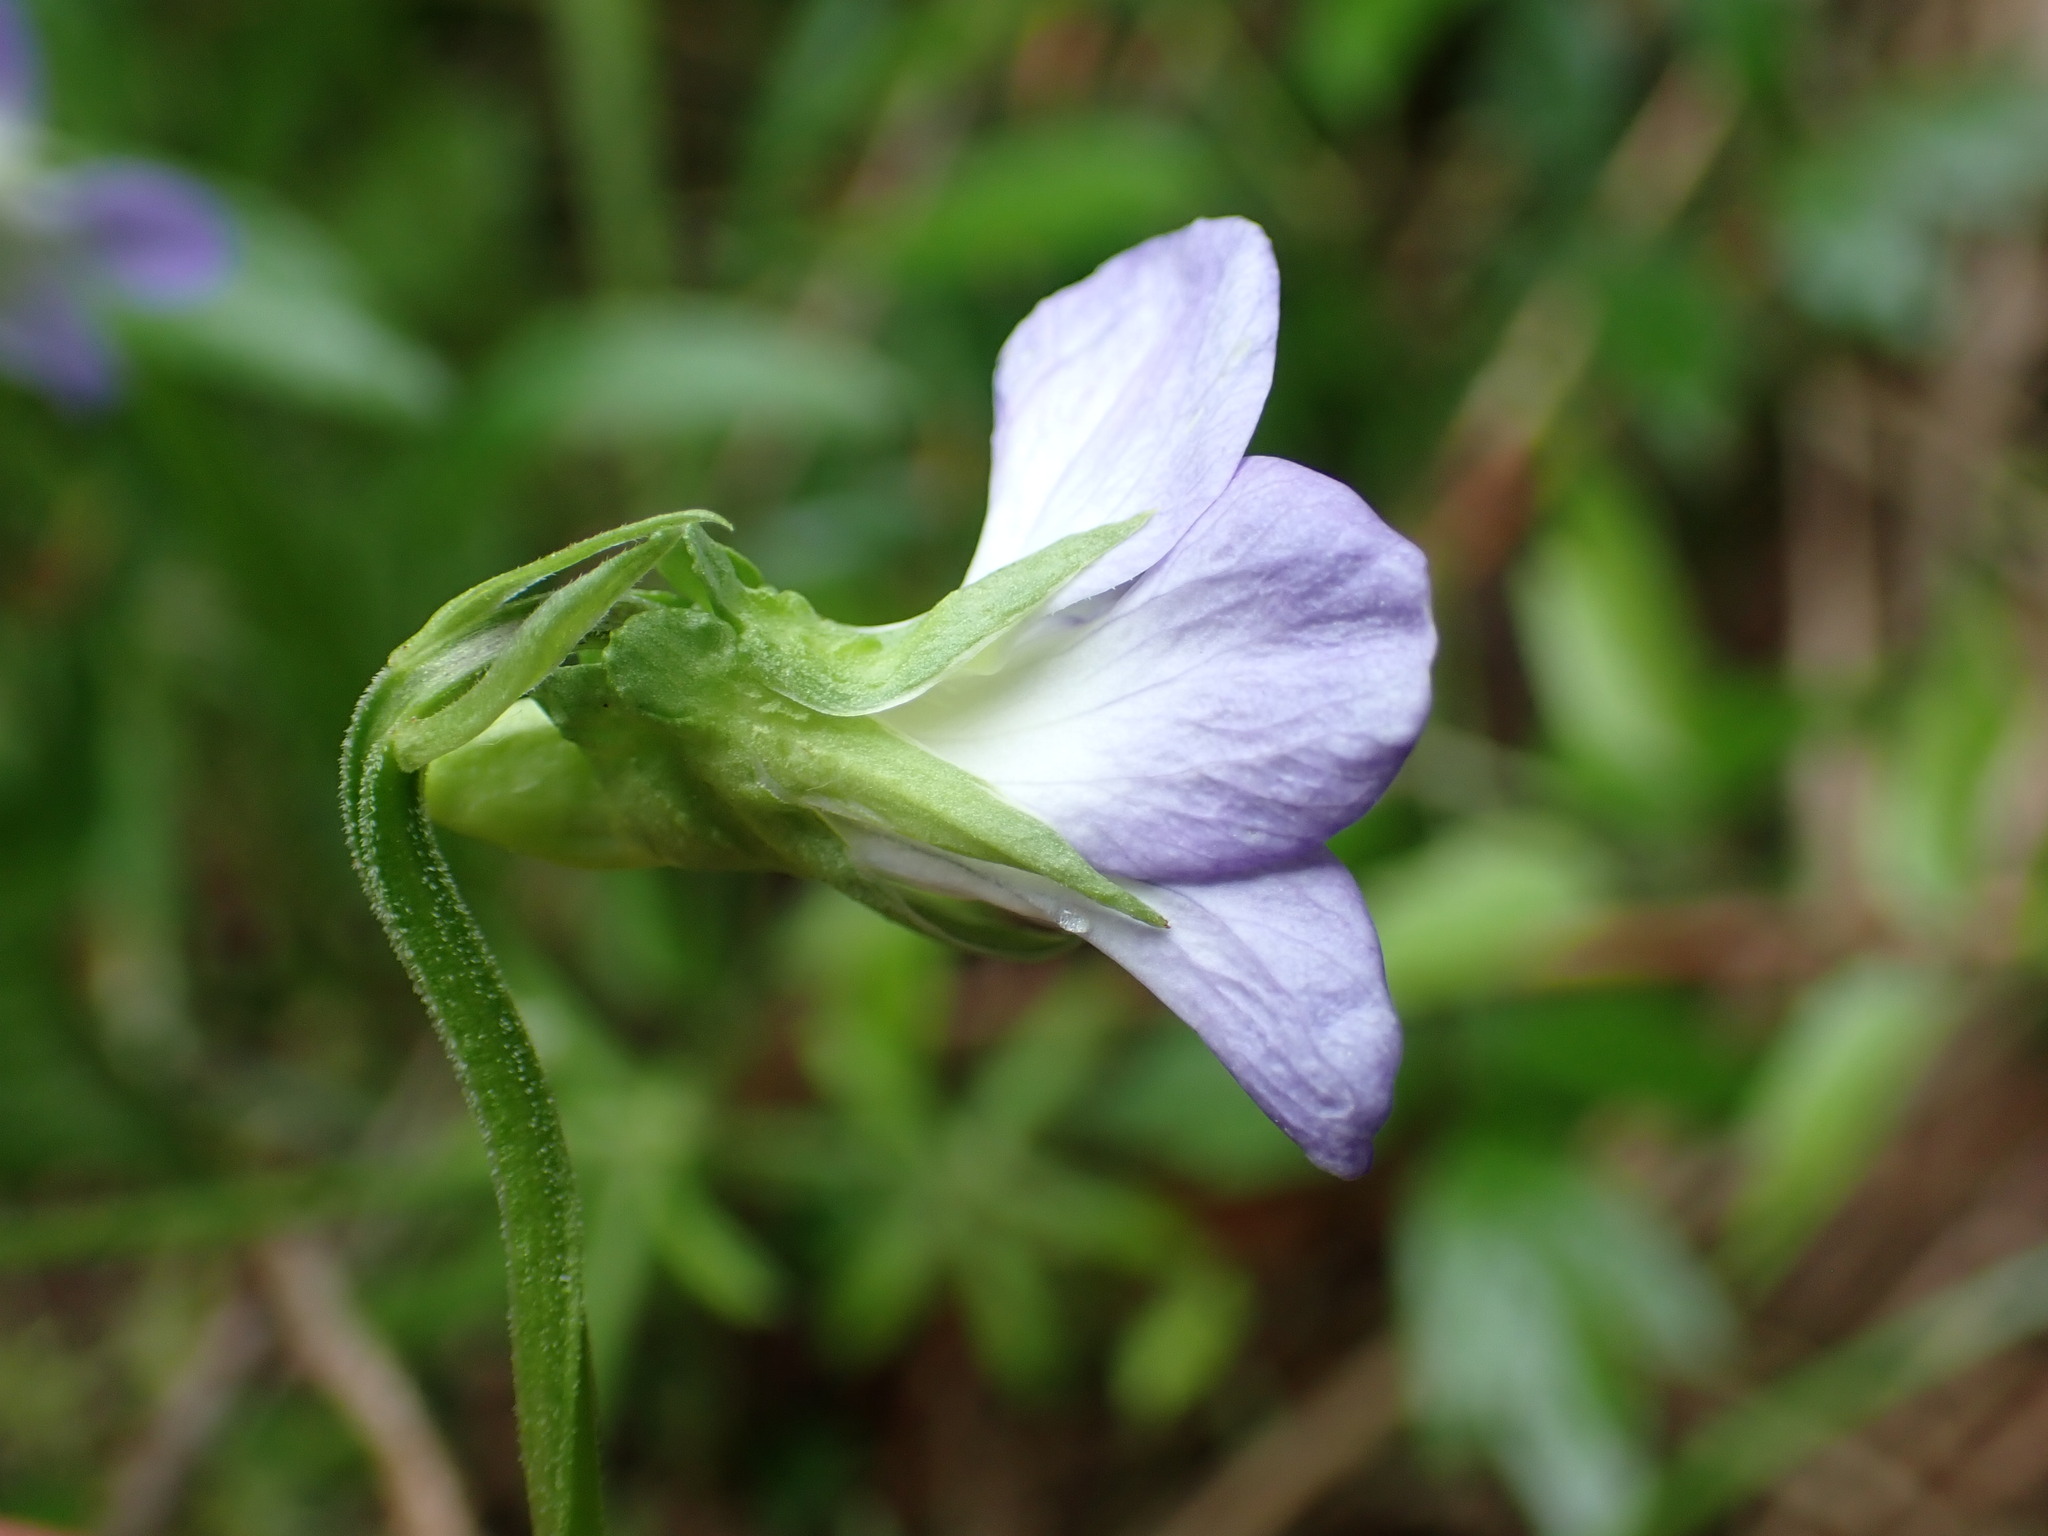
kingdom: Plantae
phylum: Tracheophyta
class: Magnoliopsida
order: Malpighiales
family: Violaceae
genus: Viola
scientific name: Viola elatior
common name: Tall violet
